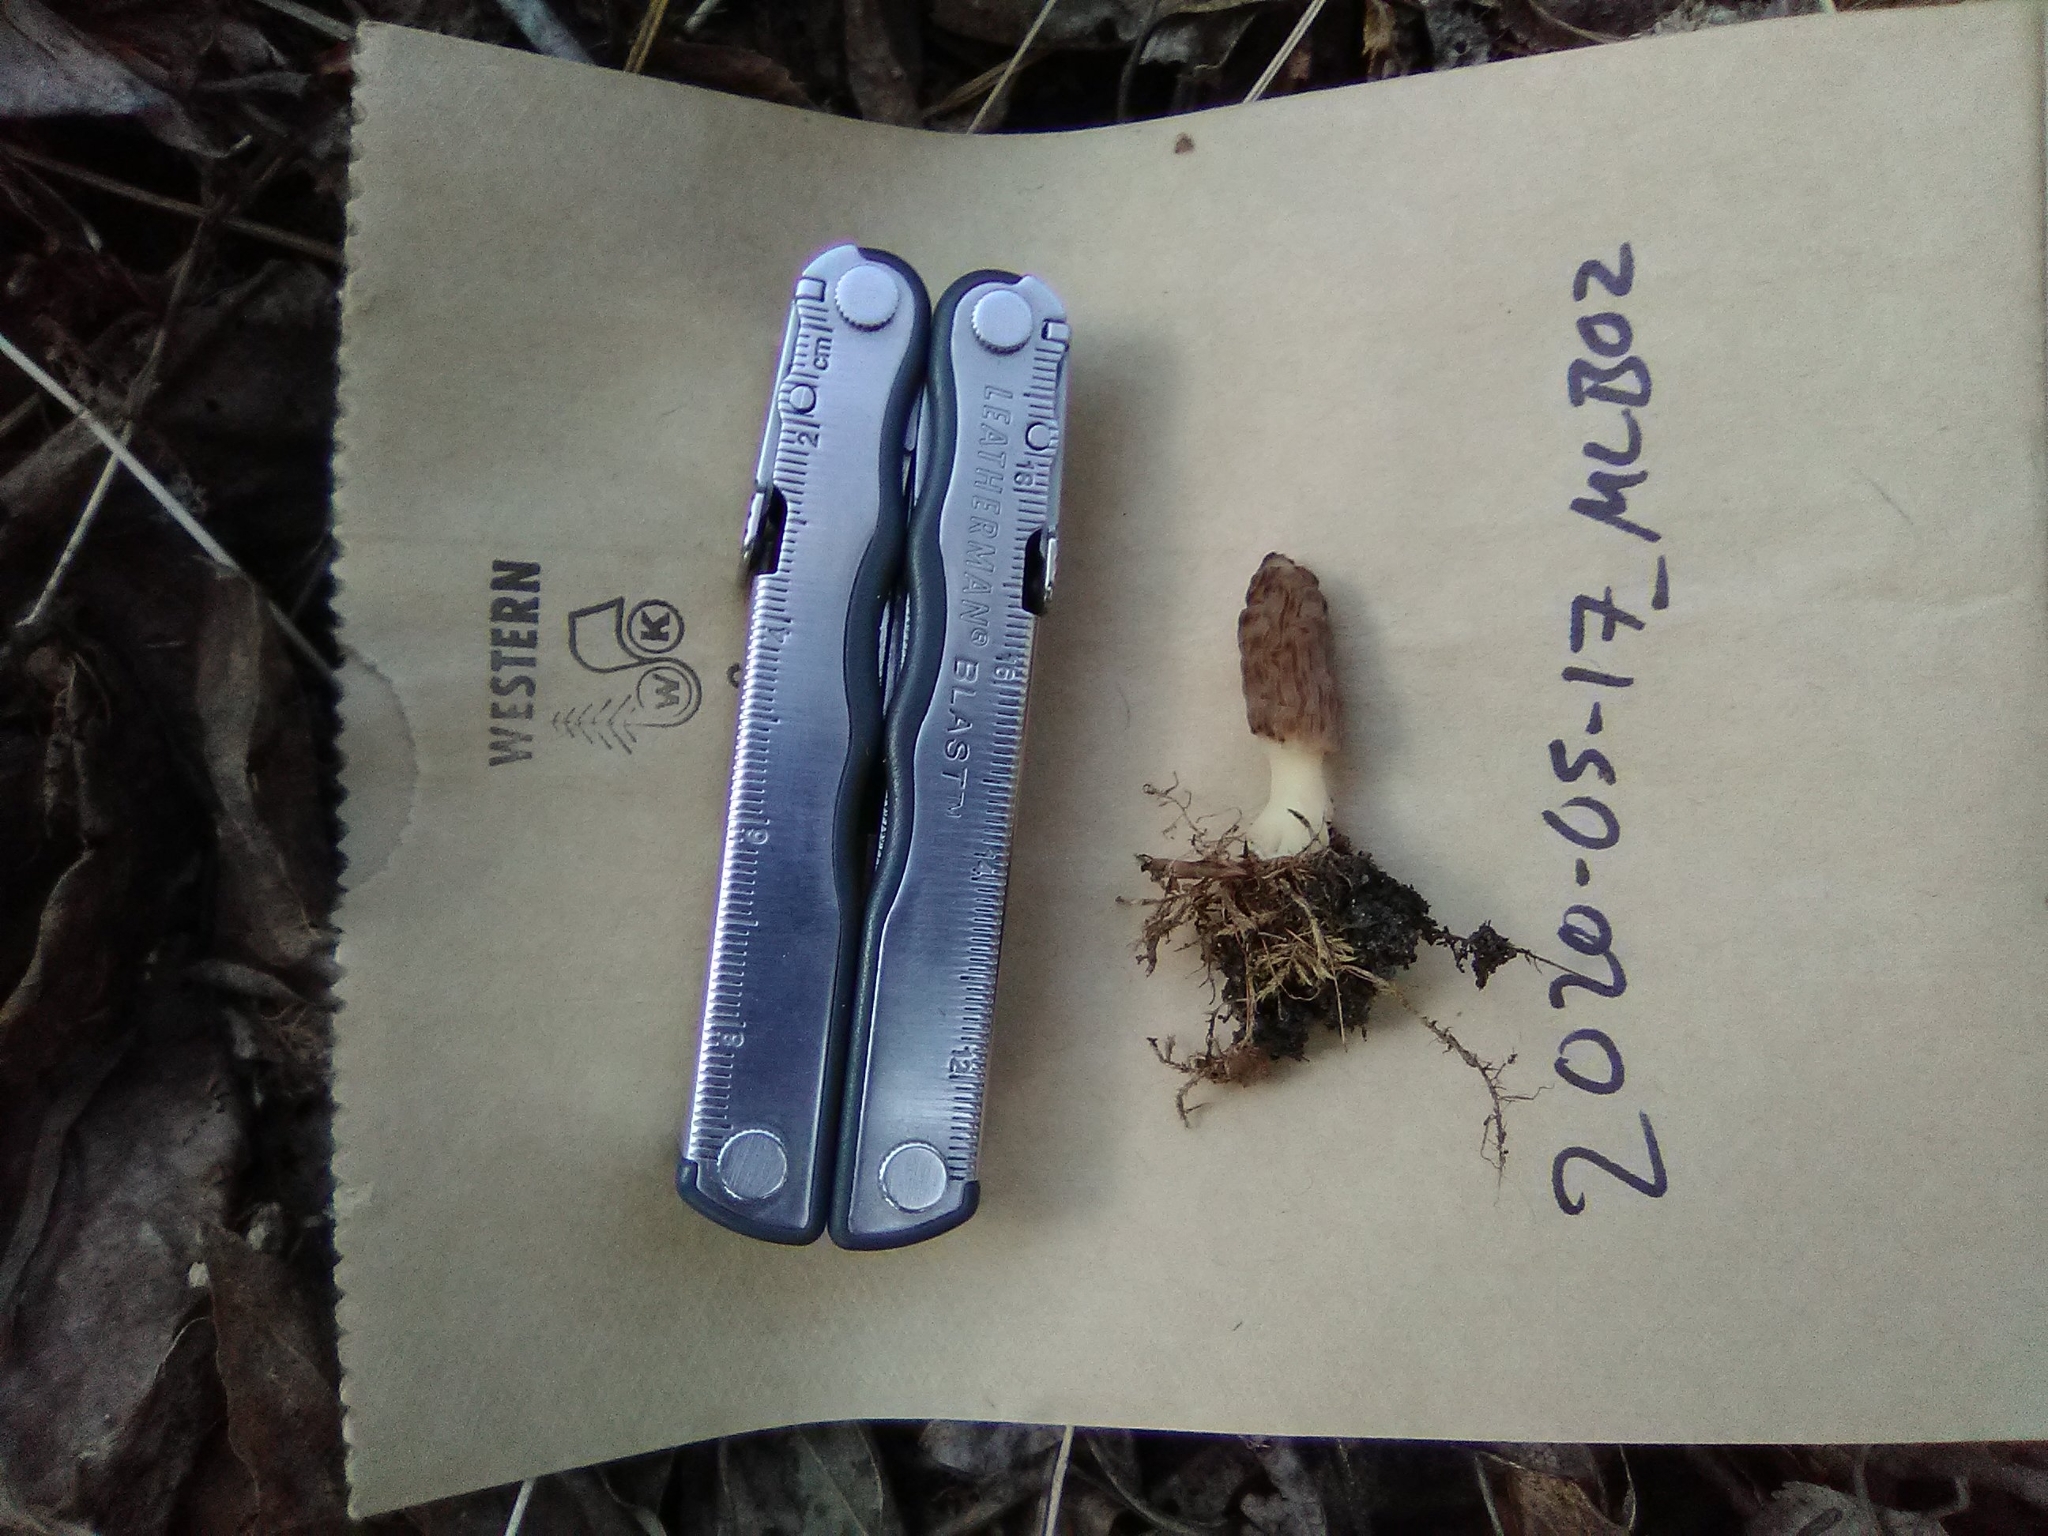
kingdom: Fungi
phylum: Ascomycota
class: Pezizomycetes
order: Pezizales
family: Morchellaceae
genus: Morchella
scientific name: Morchella pulchella
